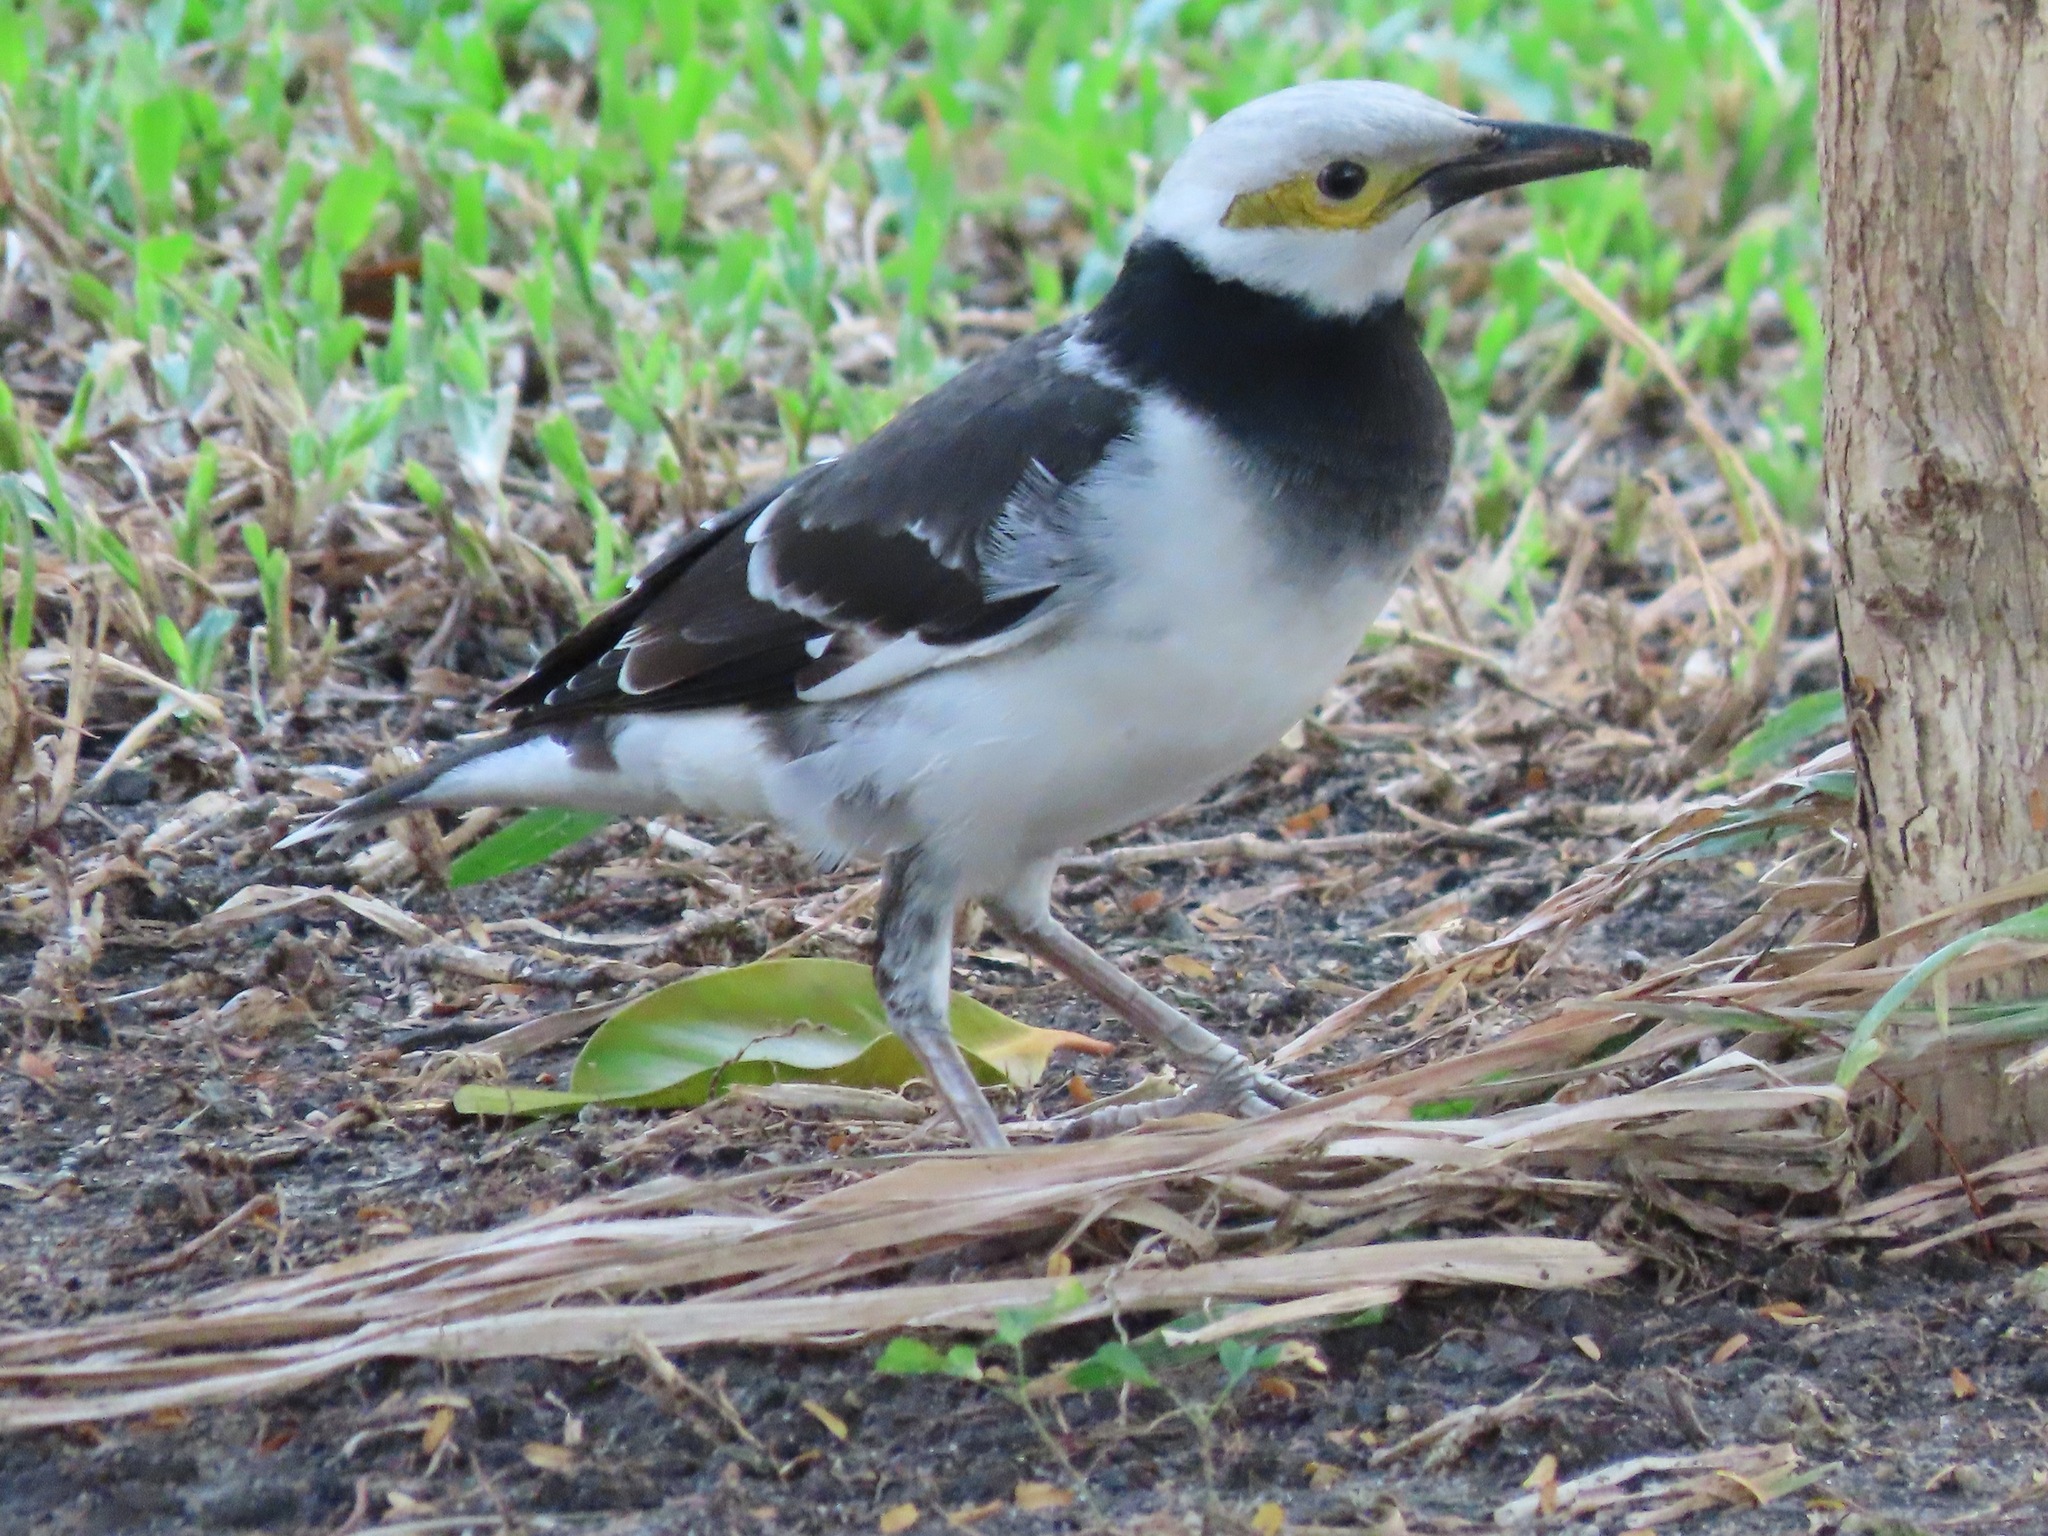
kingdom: Animalia
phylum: Chordata
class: Aves
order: Passeriformes
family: Sturnidae
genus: Gracupica
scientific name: Gracupica nigricollis
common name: Black-collared starling
